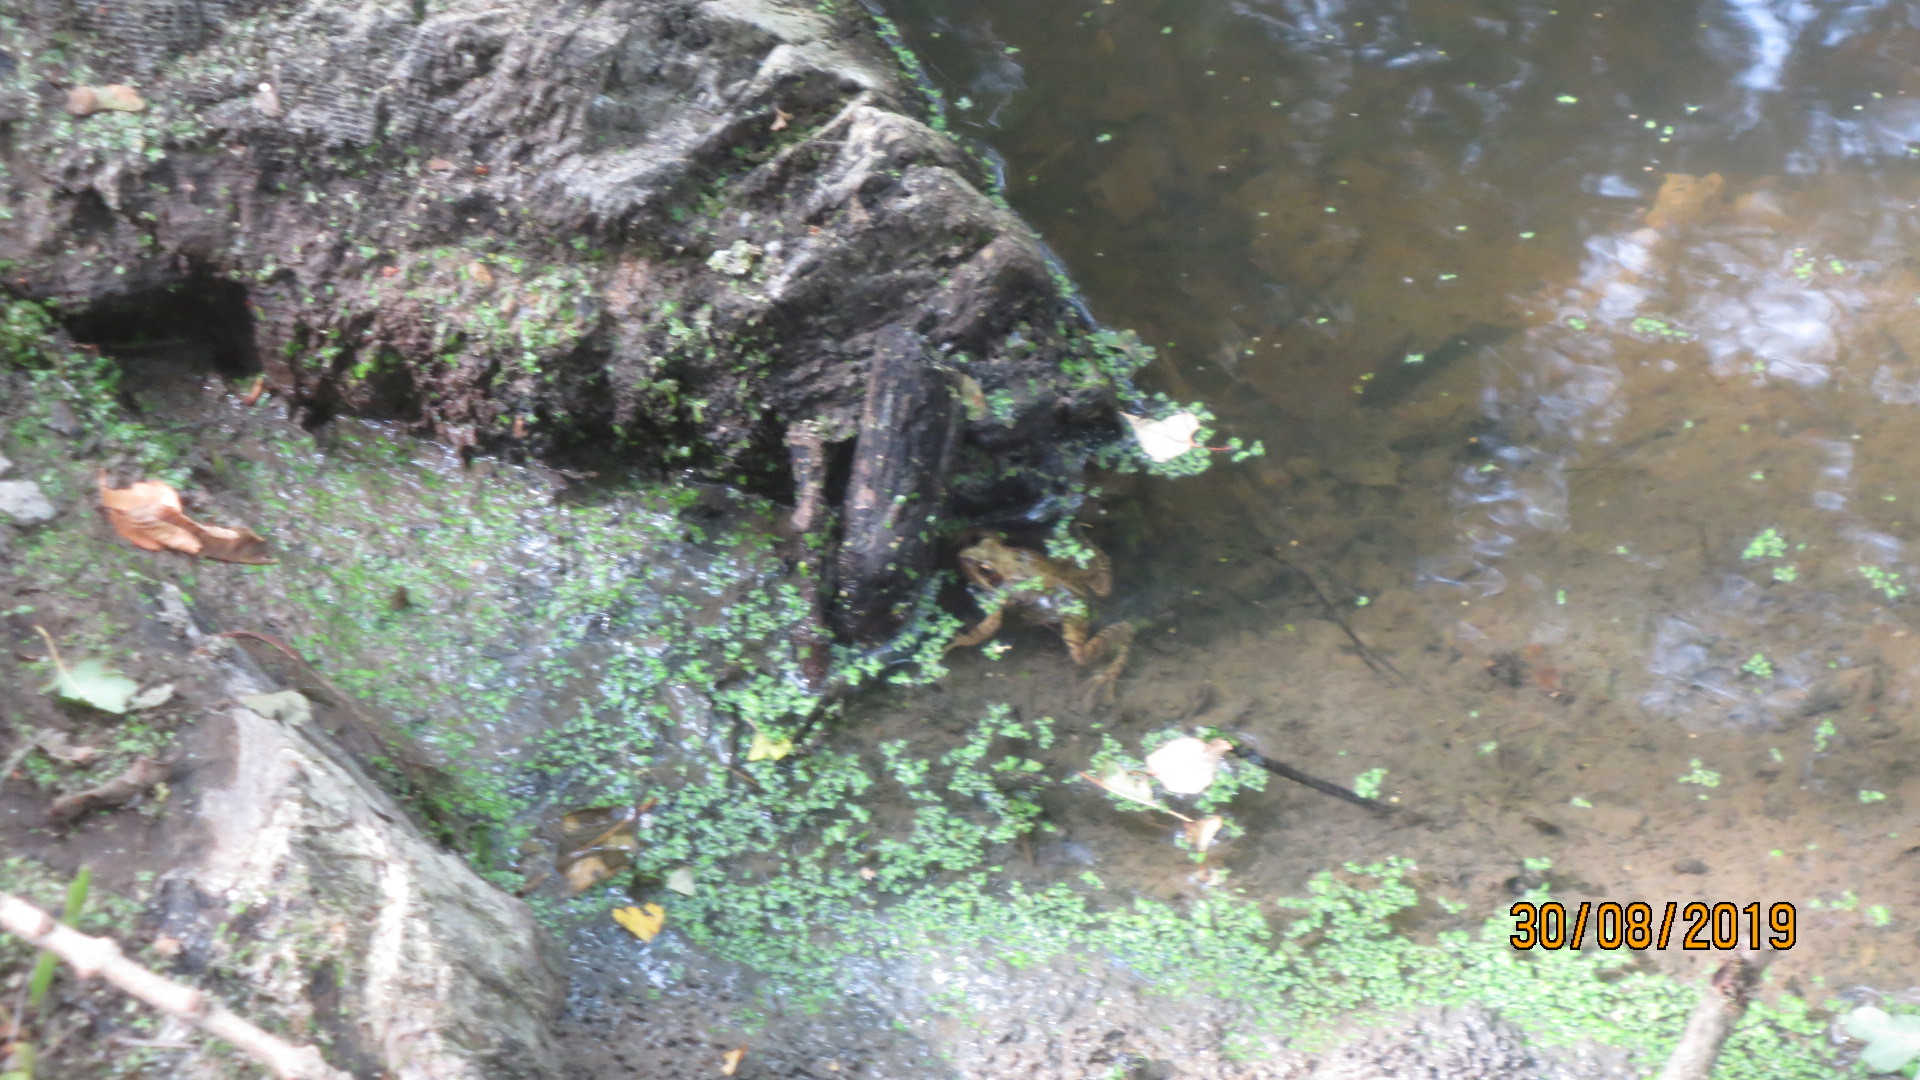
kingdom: Animalia
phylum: Chordata
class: Amphibia
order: Anura
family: Ranidae
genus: Rana
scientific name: Rana temporaria
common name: Common frog
